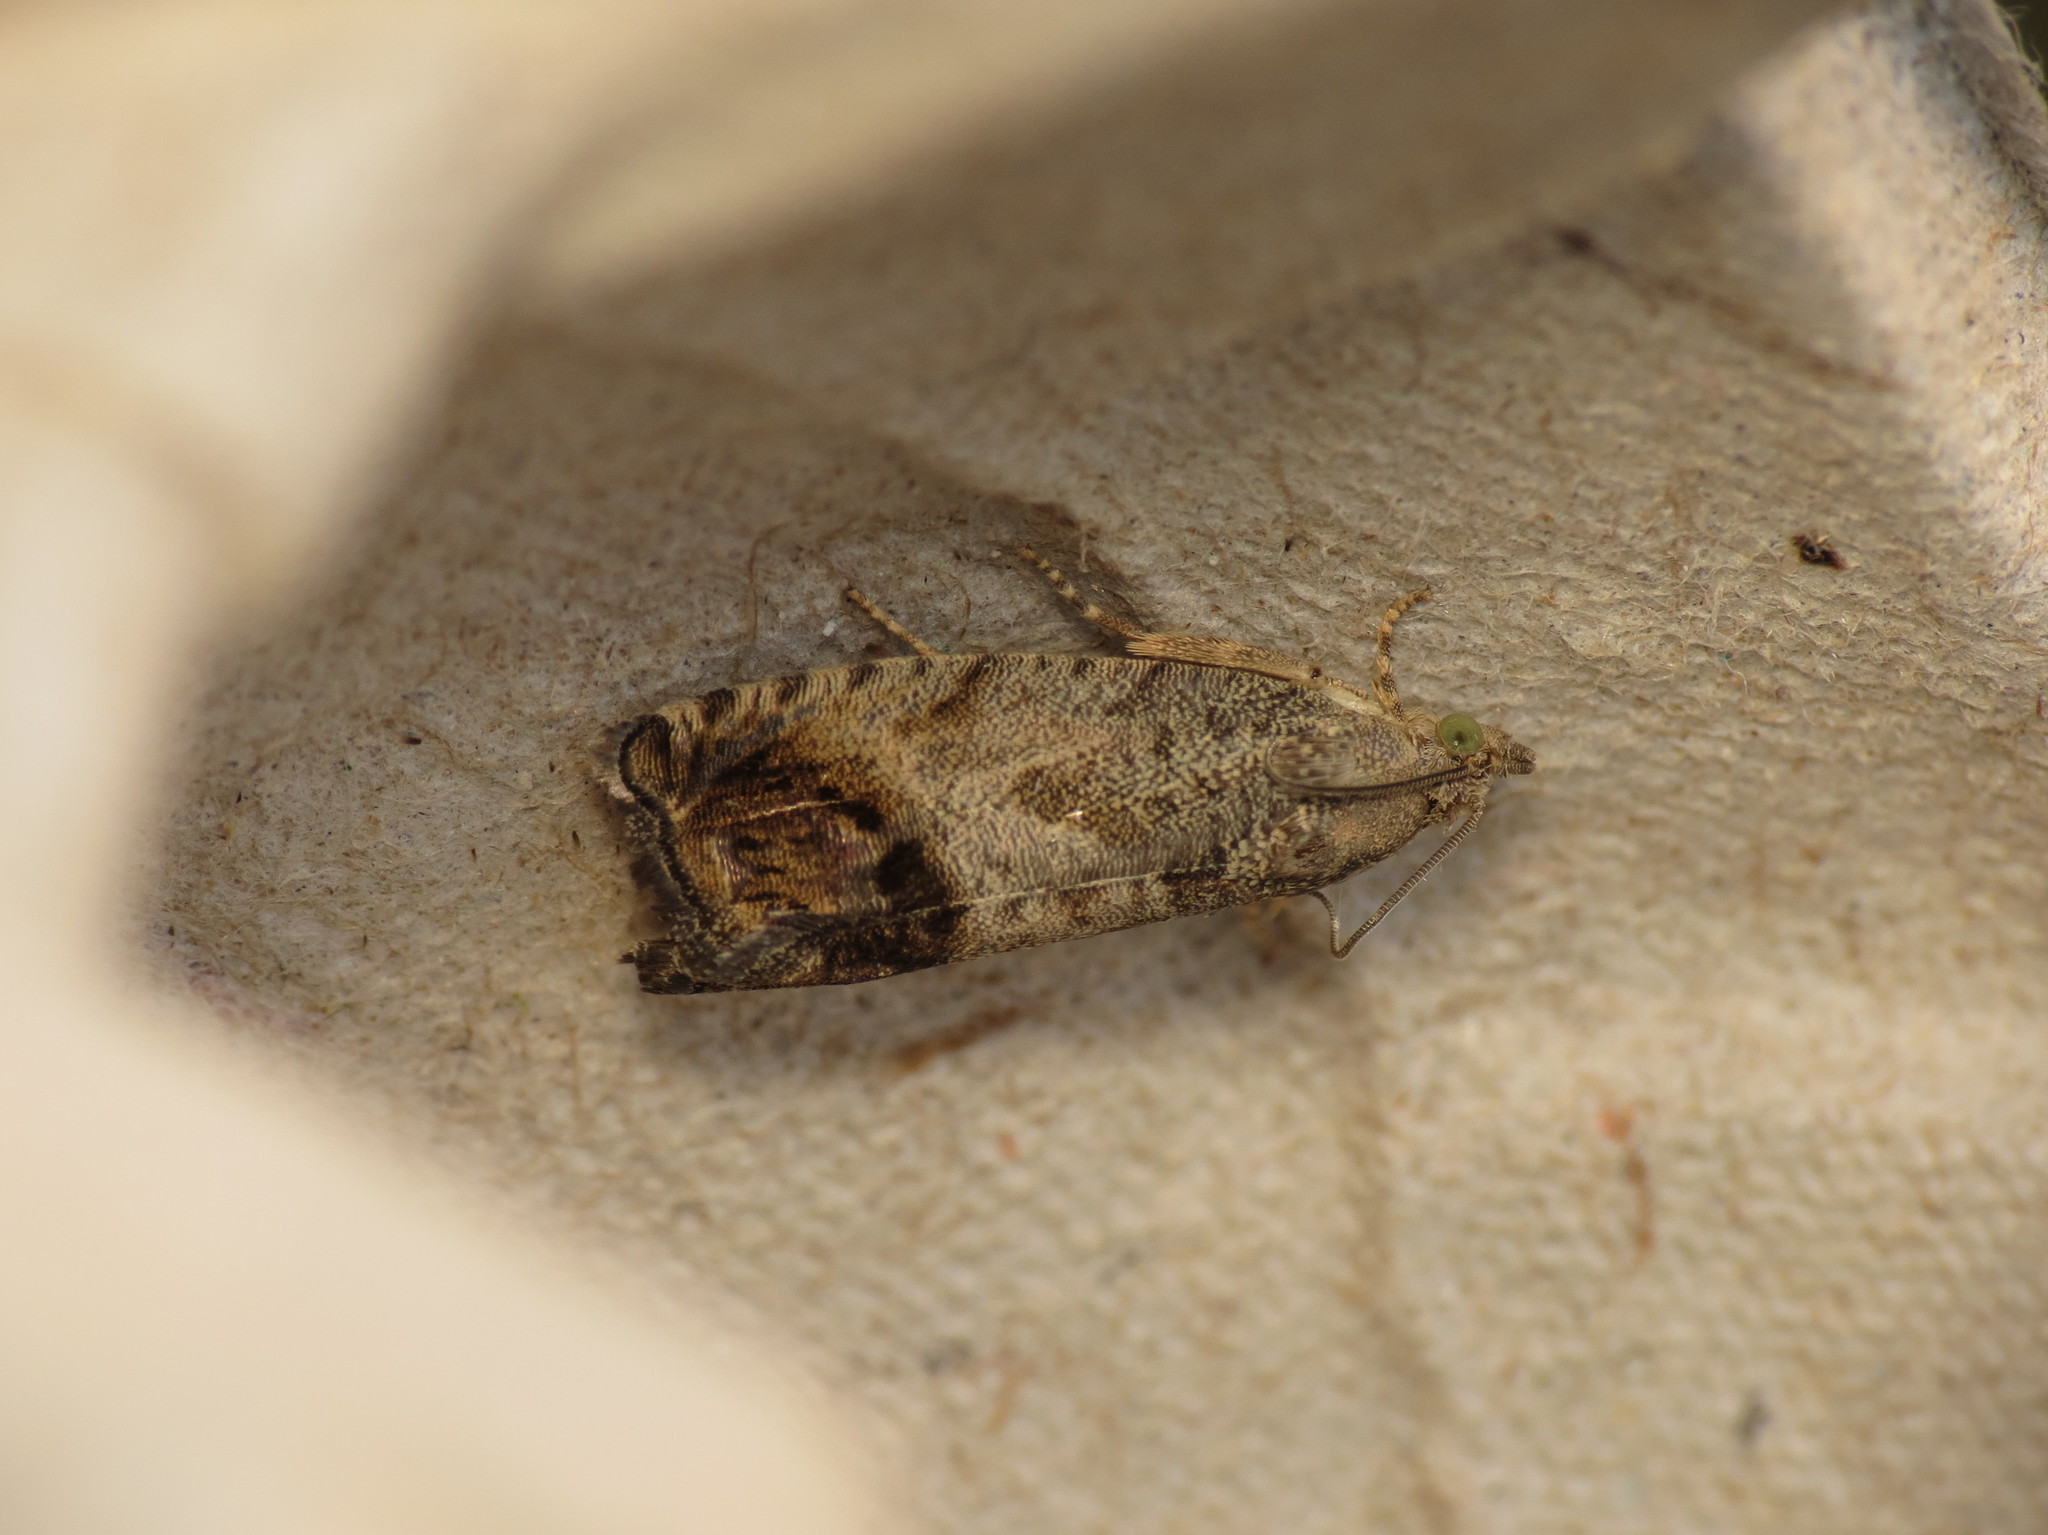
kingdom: Animalia
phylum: Arthropoda
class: Insecta
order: Lepidoptera
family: Tortricidae
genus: Cydia
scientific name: Cydia splendana
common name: De: kastanienwickler, eichenwickler es: oruga de la castaña fr: carpocapse des châtaignes it: cidia o tortrice tardiva delle castagne pt: bichado das castanhas gb: acorn moth, chestnut fruit tortrix
